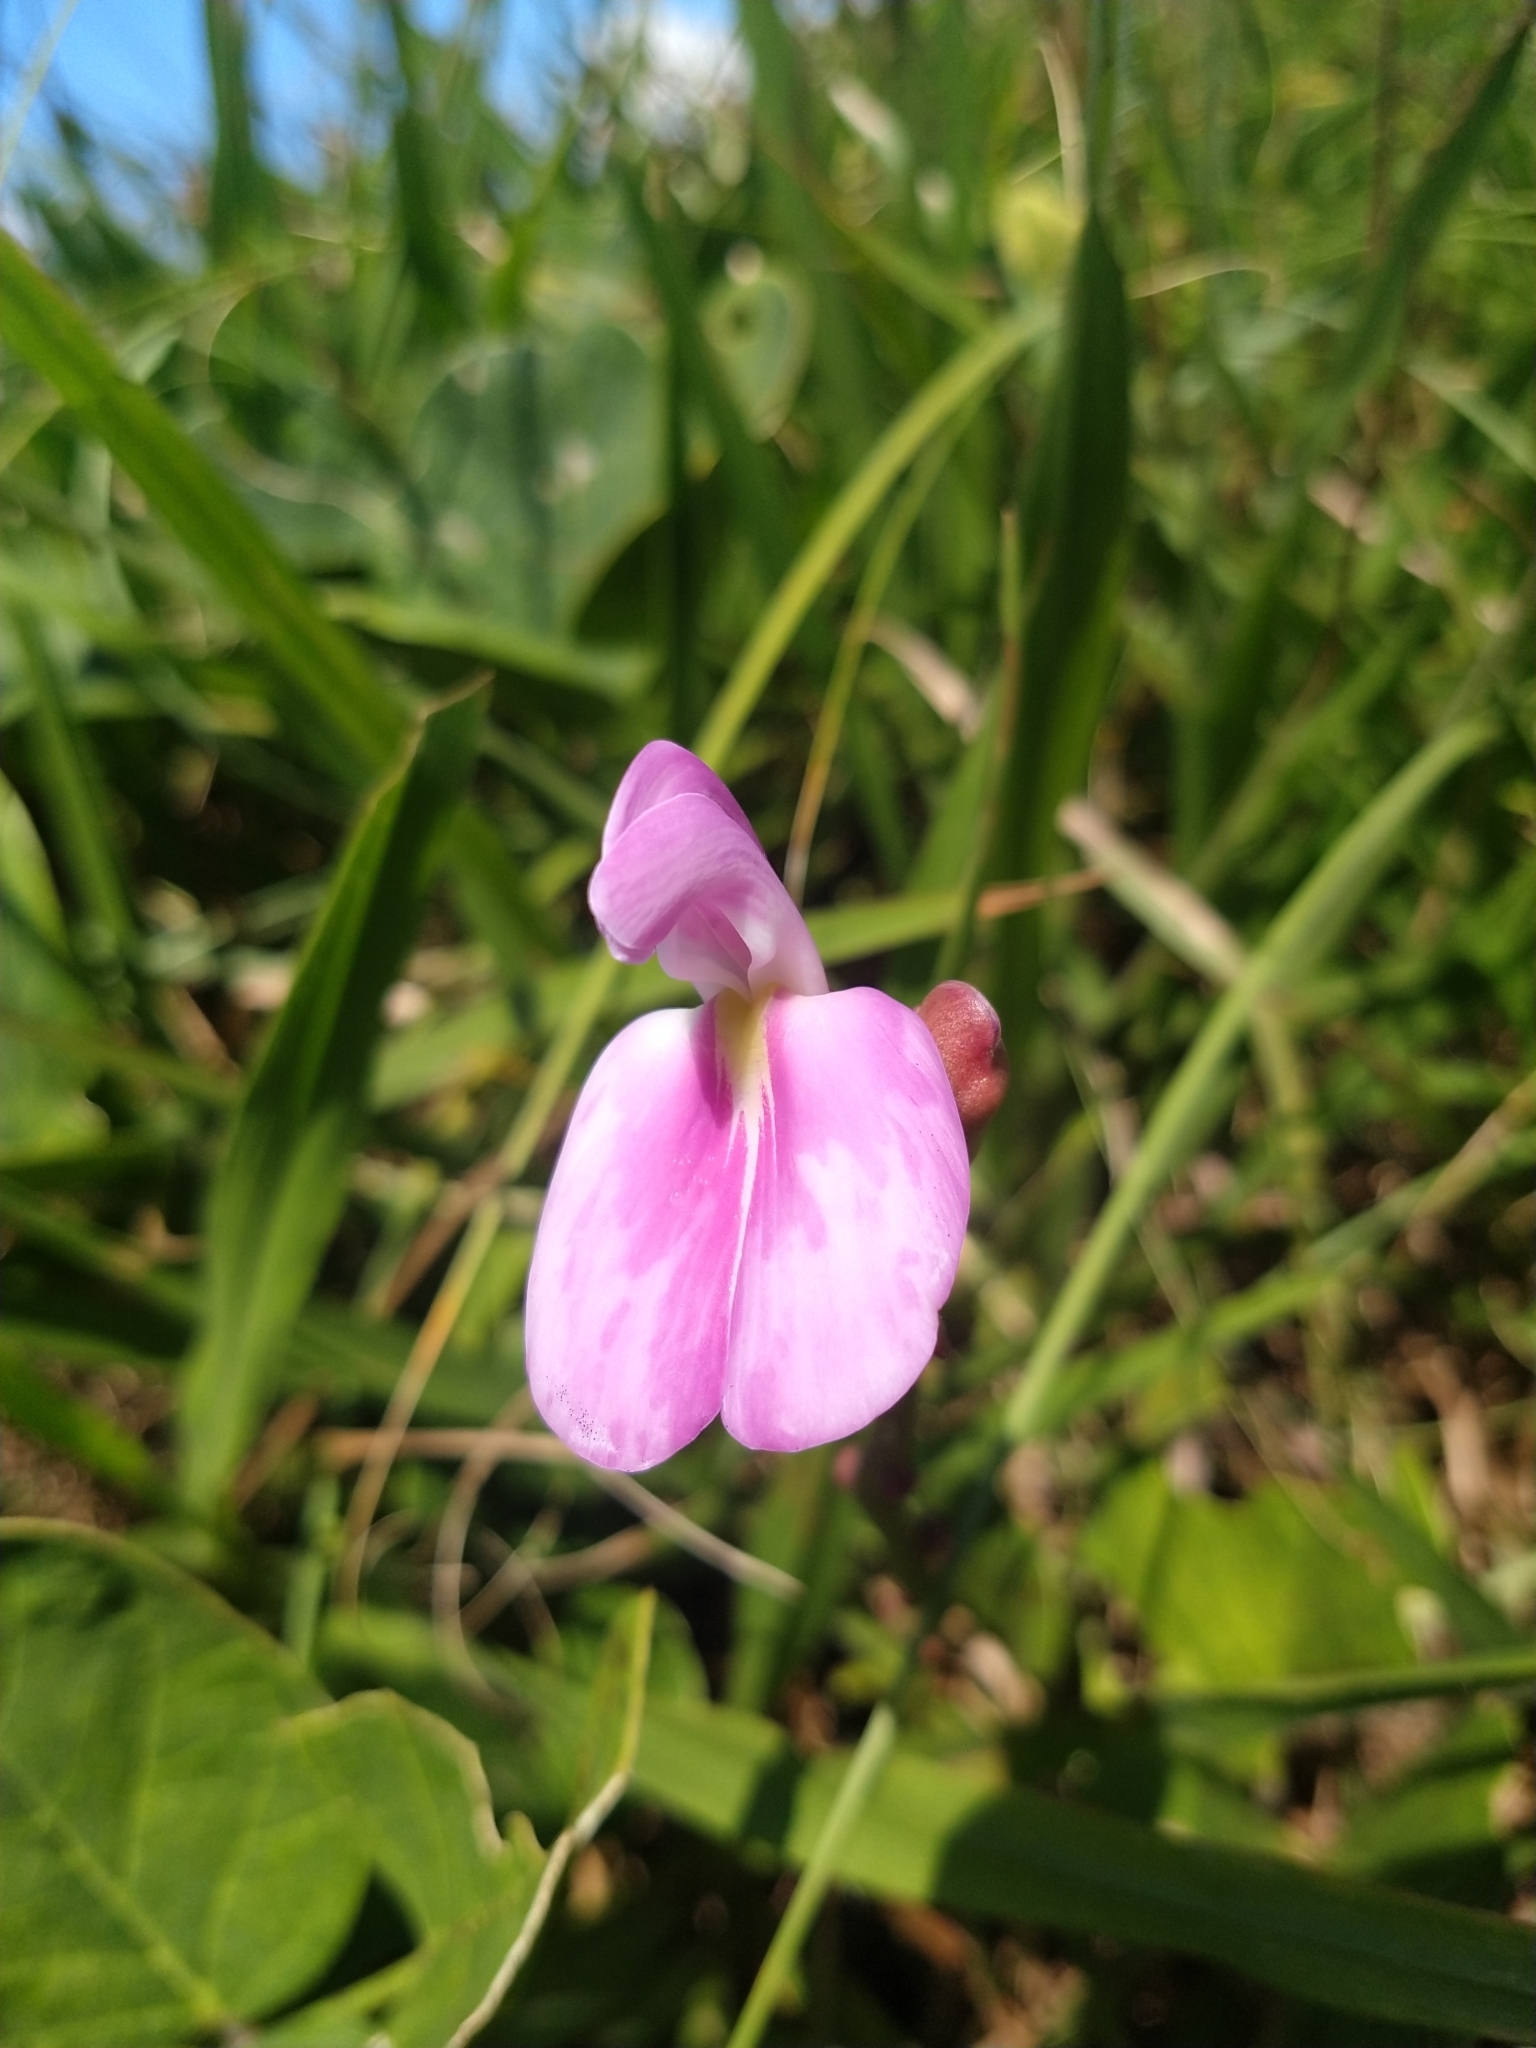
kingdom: Plantae
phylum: Tracheophyta
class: Magnoliopsida
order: Fabales
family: Fabaceae
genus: Canavalia
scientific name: Canavalia rosea
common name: Beach-bean
